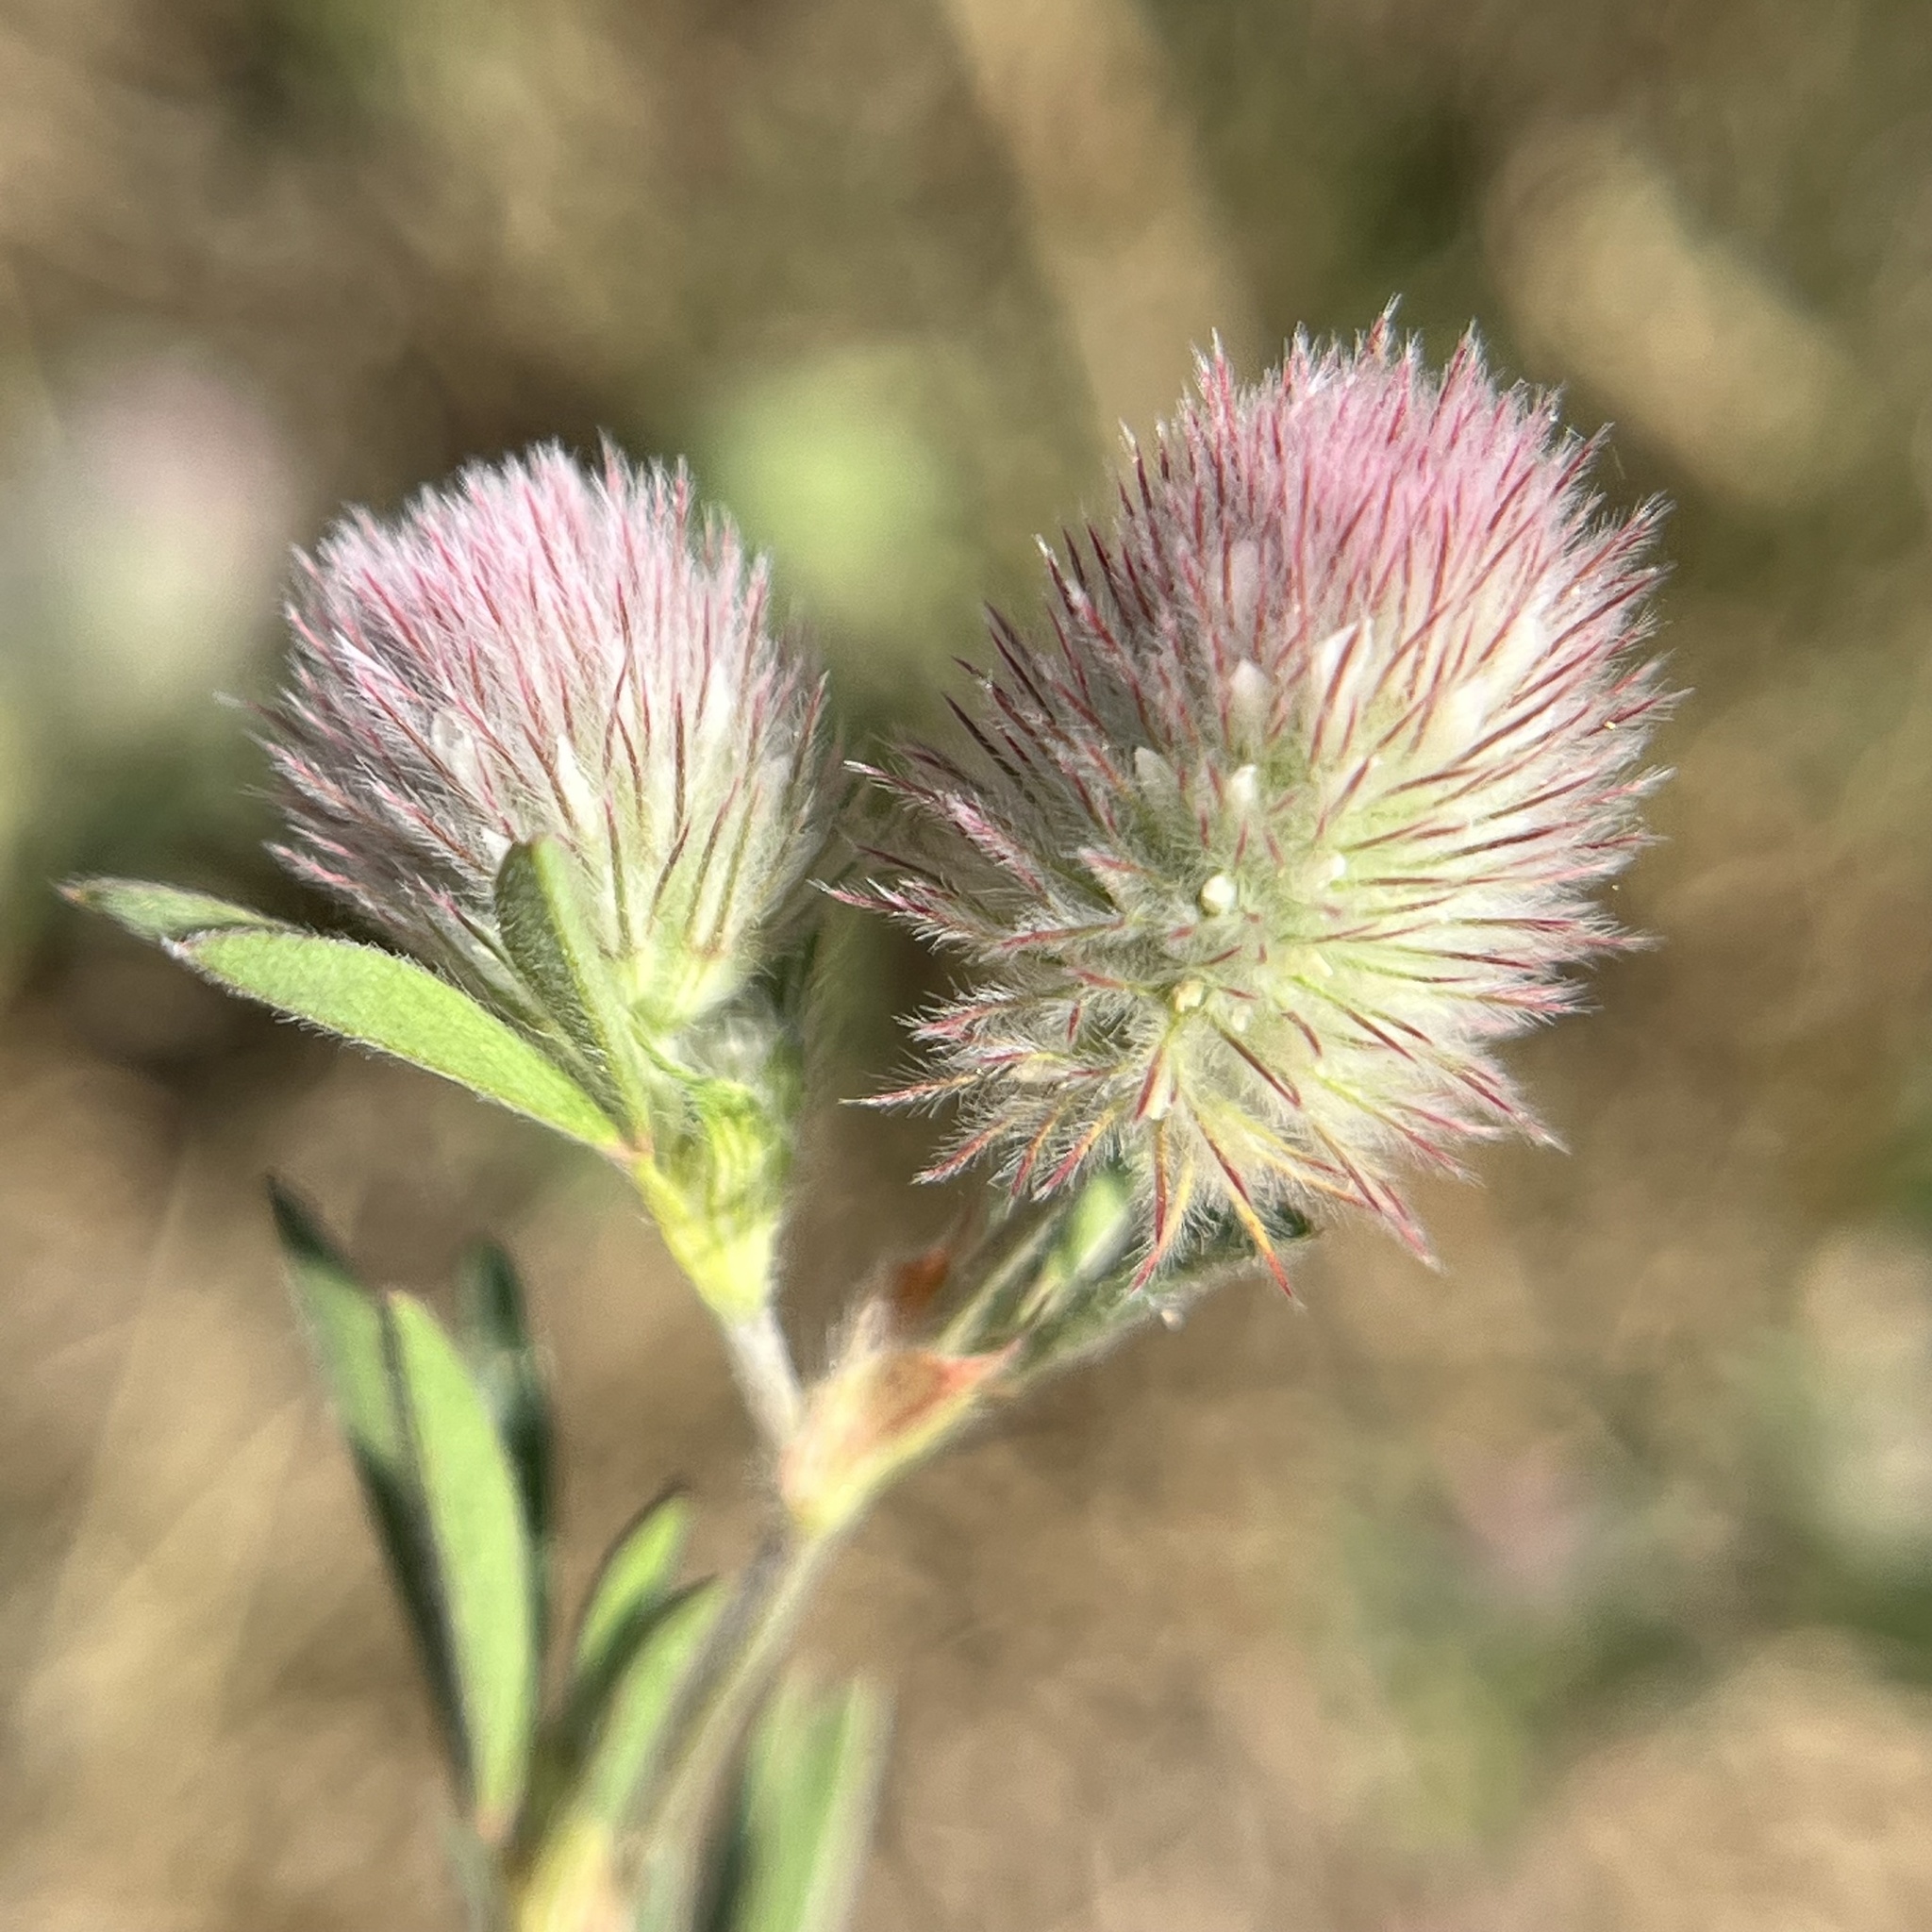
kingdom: Plantae
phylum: Tracheophyta
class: Magnoliopsida
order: Fabales
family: Fabaceae
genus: Trifolium
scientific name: Trifolium arvense
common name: Hare's-foot clover
